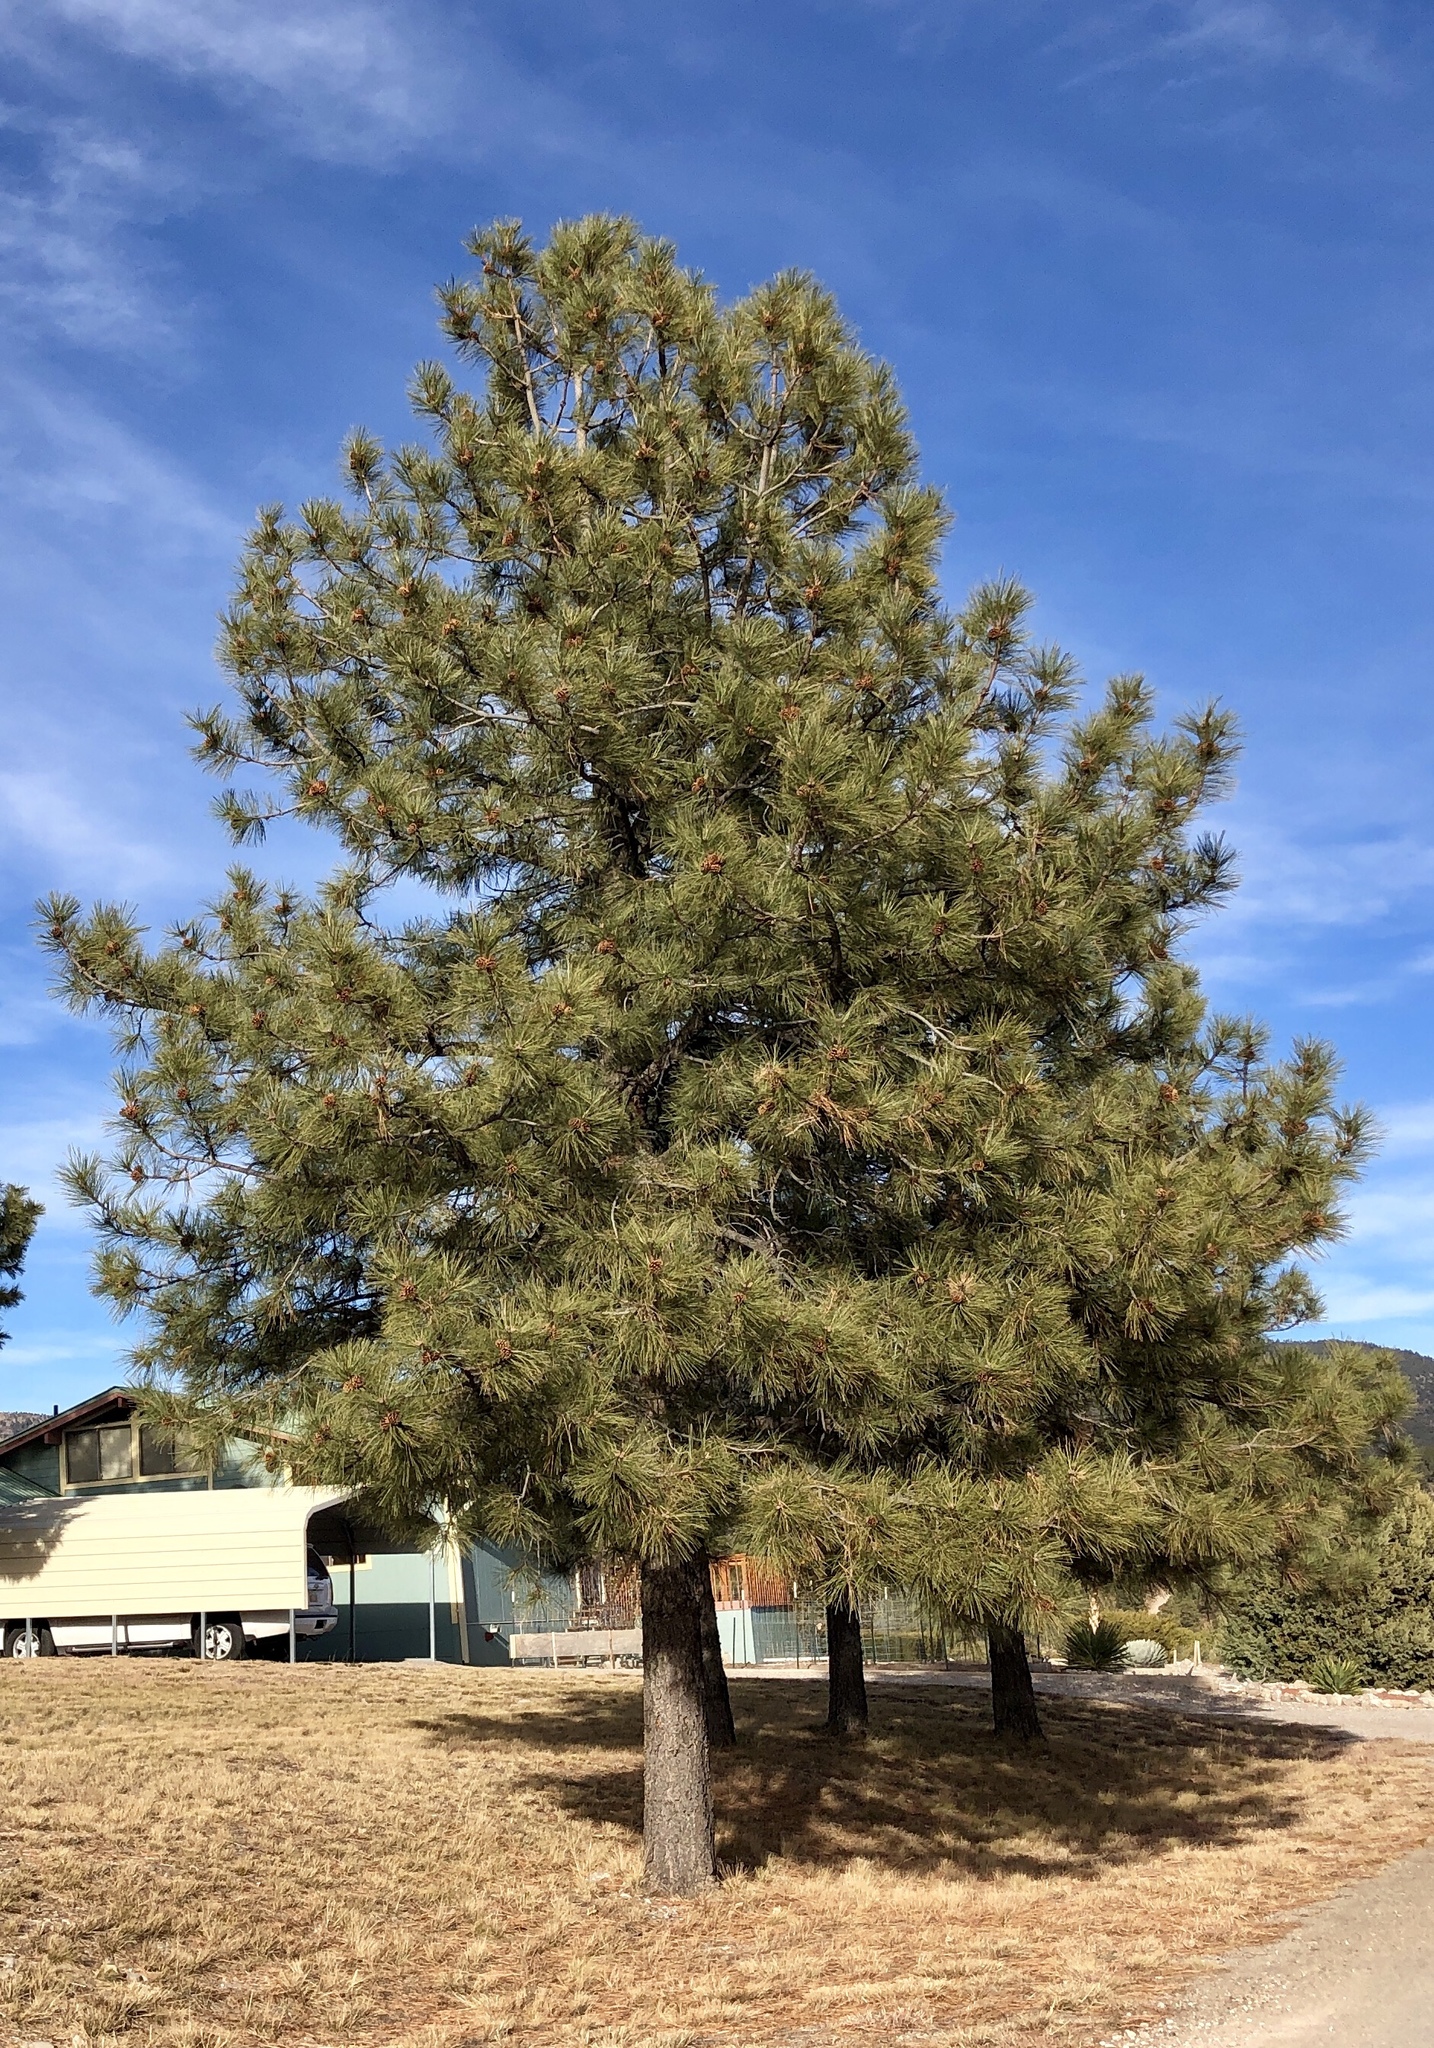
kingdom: Plantae
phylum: Tracheophyta
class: Pinopsida
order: Pinales
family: Pinaceae
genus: Pinus
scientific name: Pinus ponderosa
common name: Western yellow-pine
